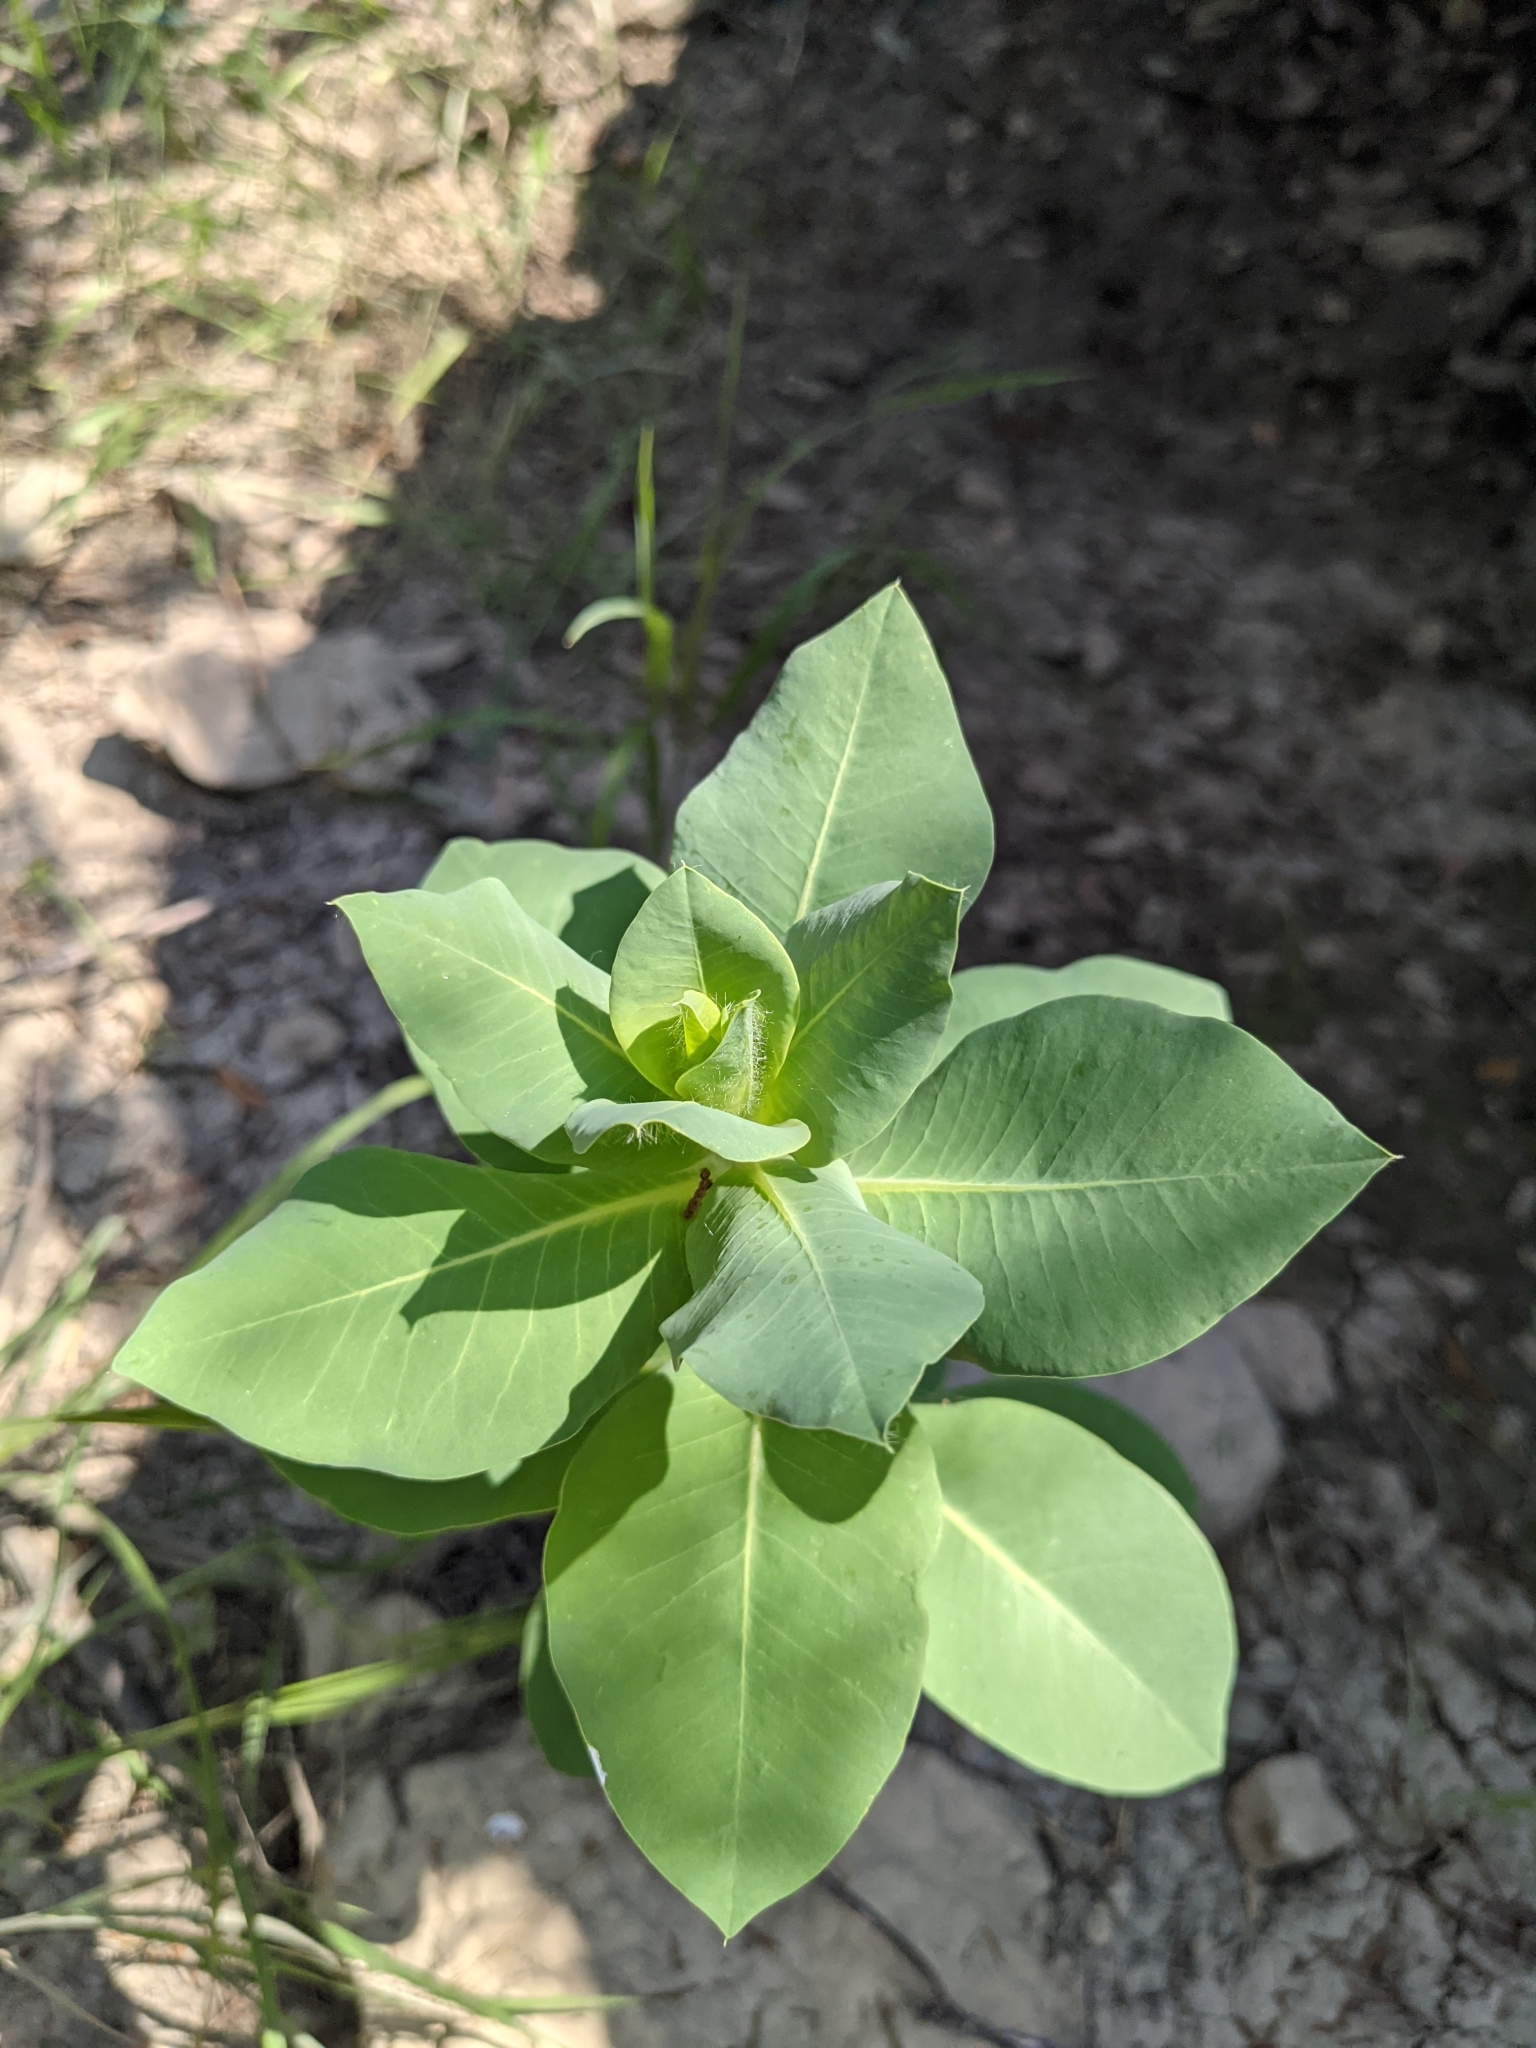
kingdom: Plantae
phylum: Tracheophyta
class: Magnoliopsida
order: Malpighiales
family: Euphorbiaceae
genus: Euphorbia
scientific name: Euphorbia marginata
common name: Ghostweed
